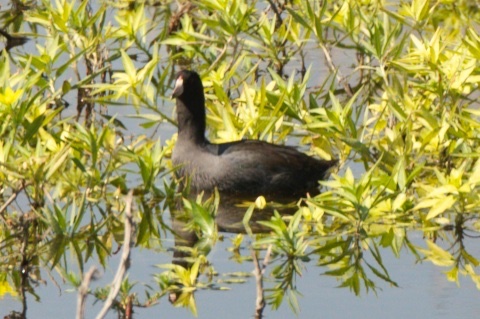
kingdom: Animalia
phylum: Chordata
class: Aves
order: Gruiformes
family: Rallidae
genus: Fulica
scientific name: Fulica americana
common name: American coot
